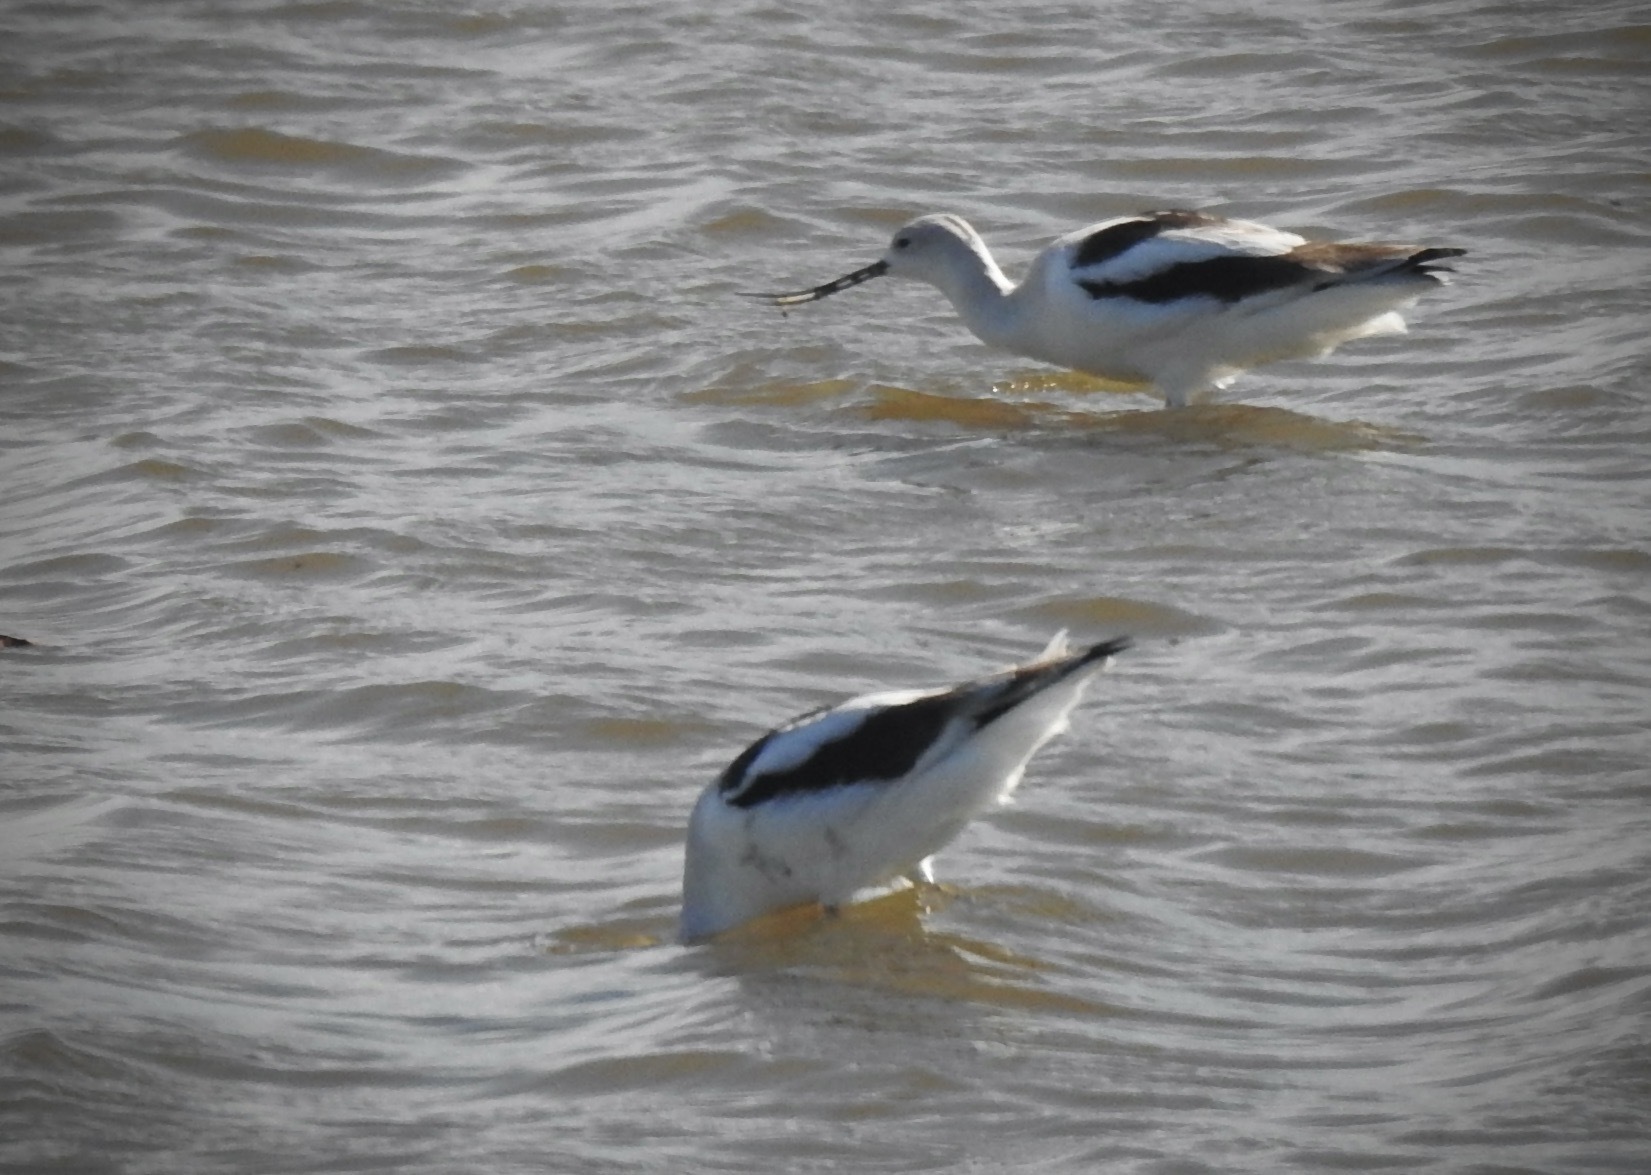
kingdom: Animalia
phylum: Chordata
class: Aves
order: Charadriiformes
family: Recurvirostridae
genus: Recurvirostra
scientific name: Recurvirostra americana
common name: American avocet
